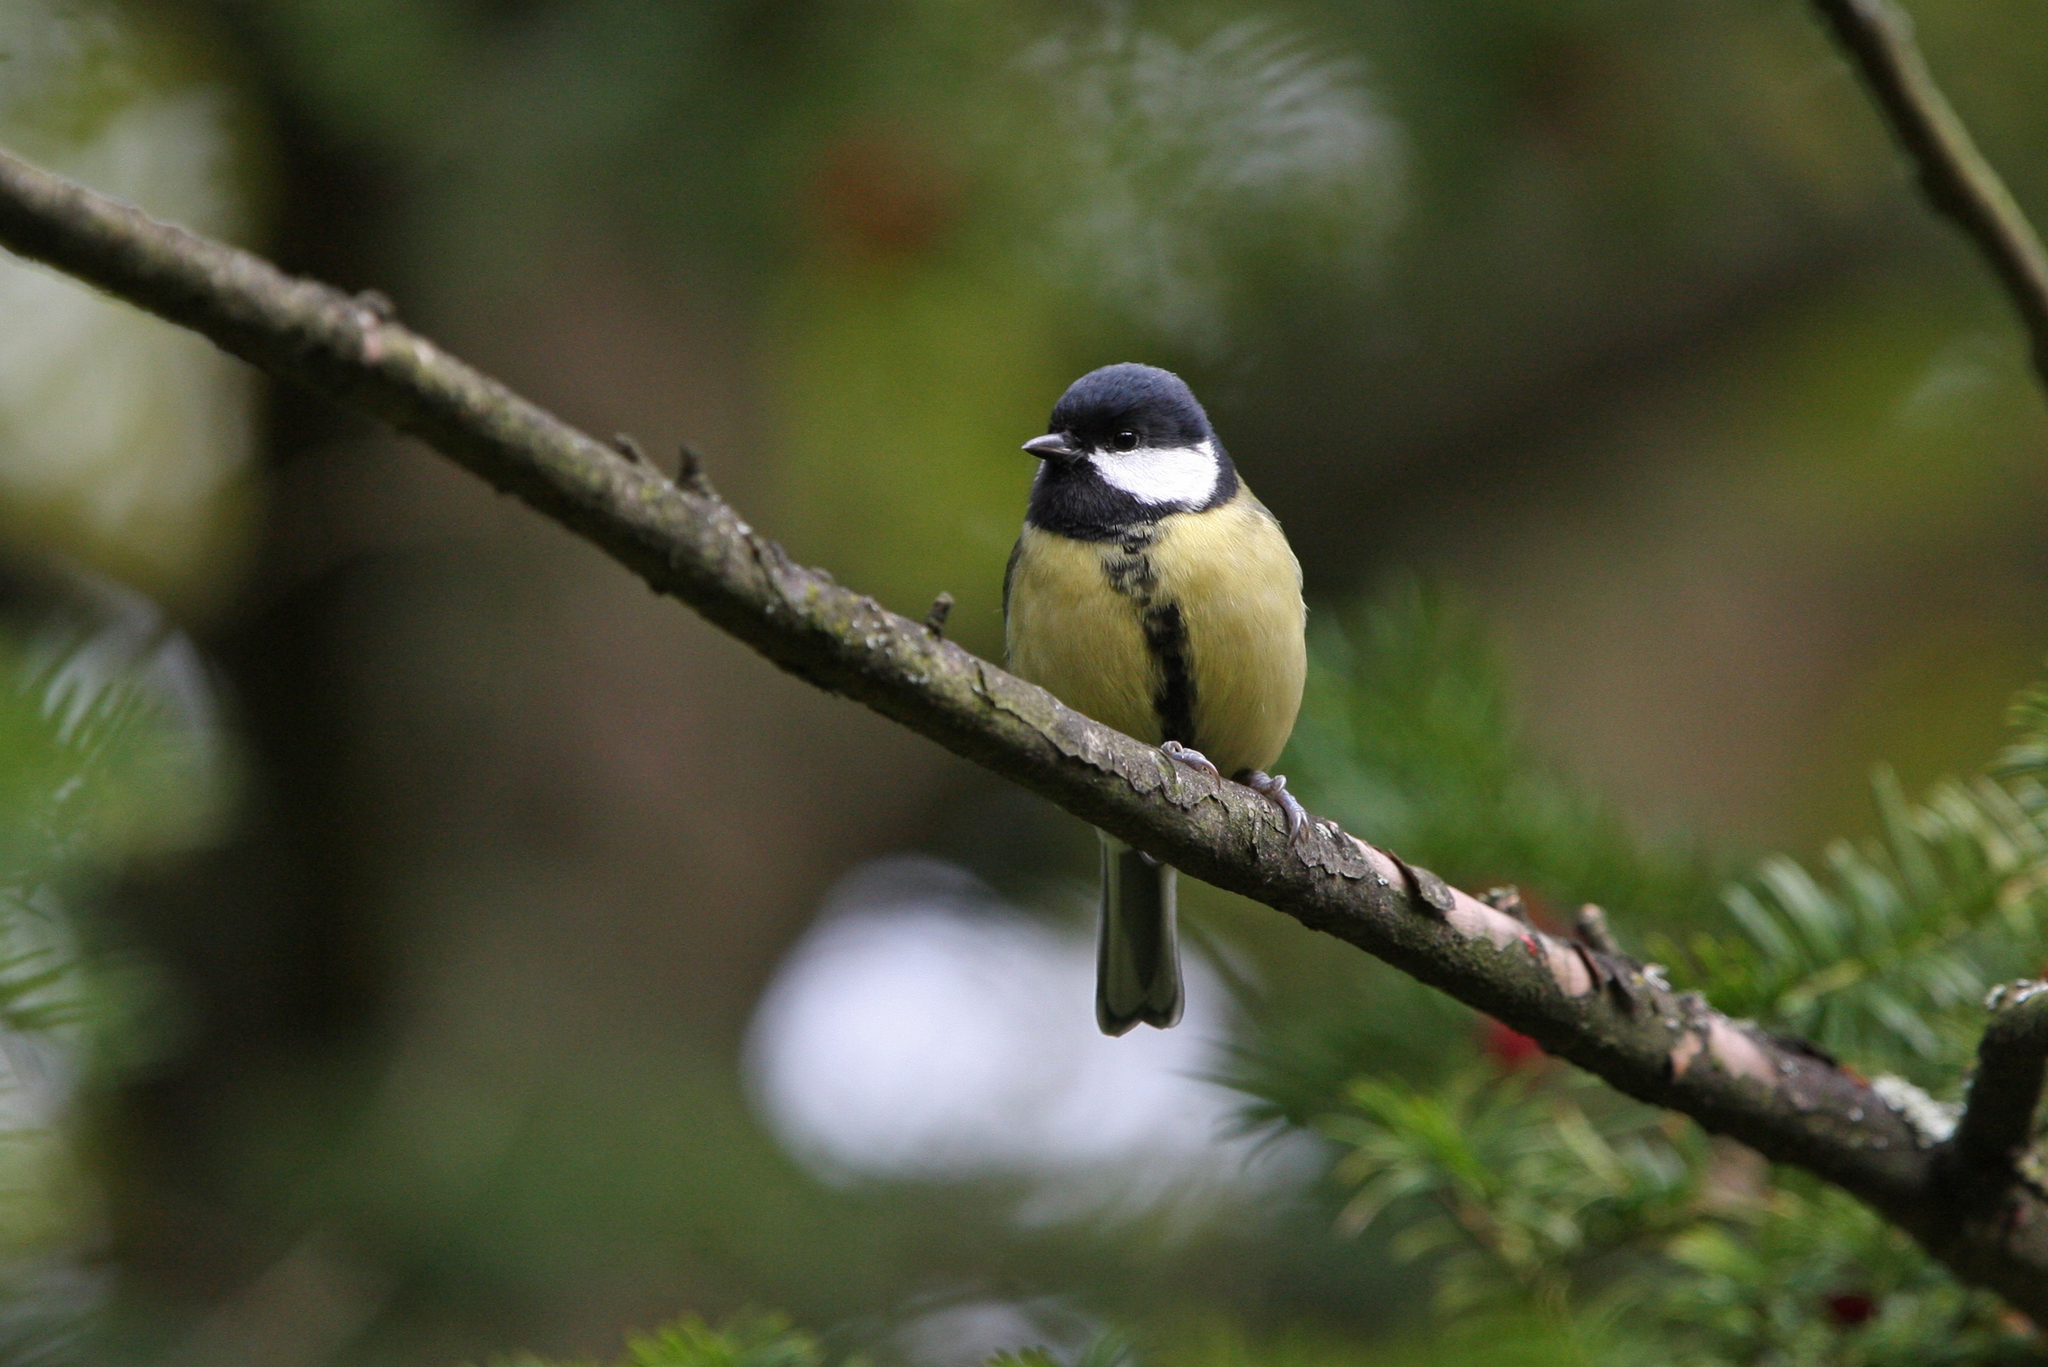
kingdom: Animalia
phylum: Chordata
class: Aves
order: Passeriformes
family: Paridae
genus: Parus
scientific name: Parus major
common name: Great tit
